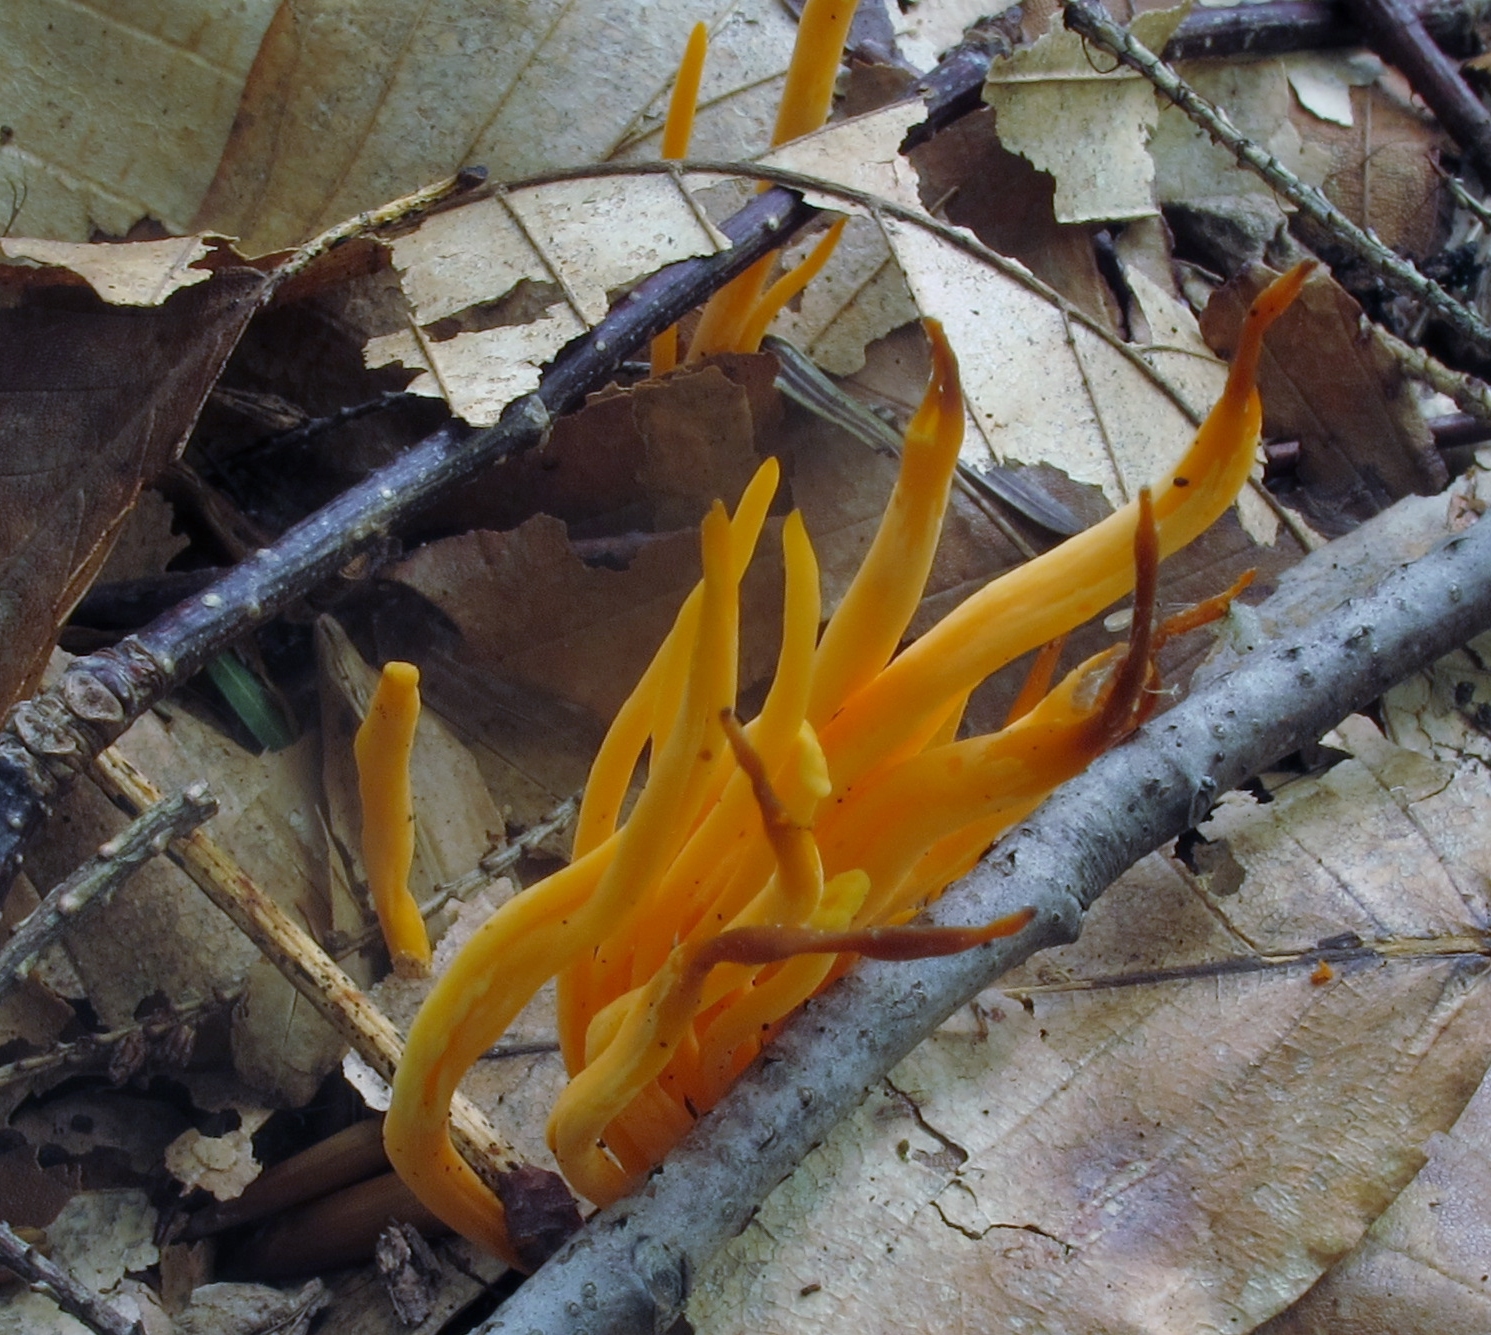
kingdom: Fungi
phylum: Basidiomycota
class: Agaricomycetes
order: Agaricales
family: Clavariaceae
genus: Clavulinopsis
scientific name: Clavulinopsis aurantiocinnabarina
